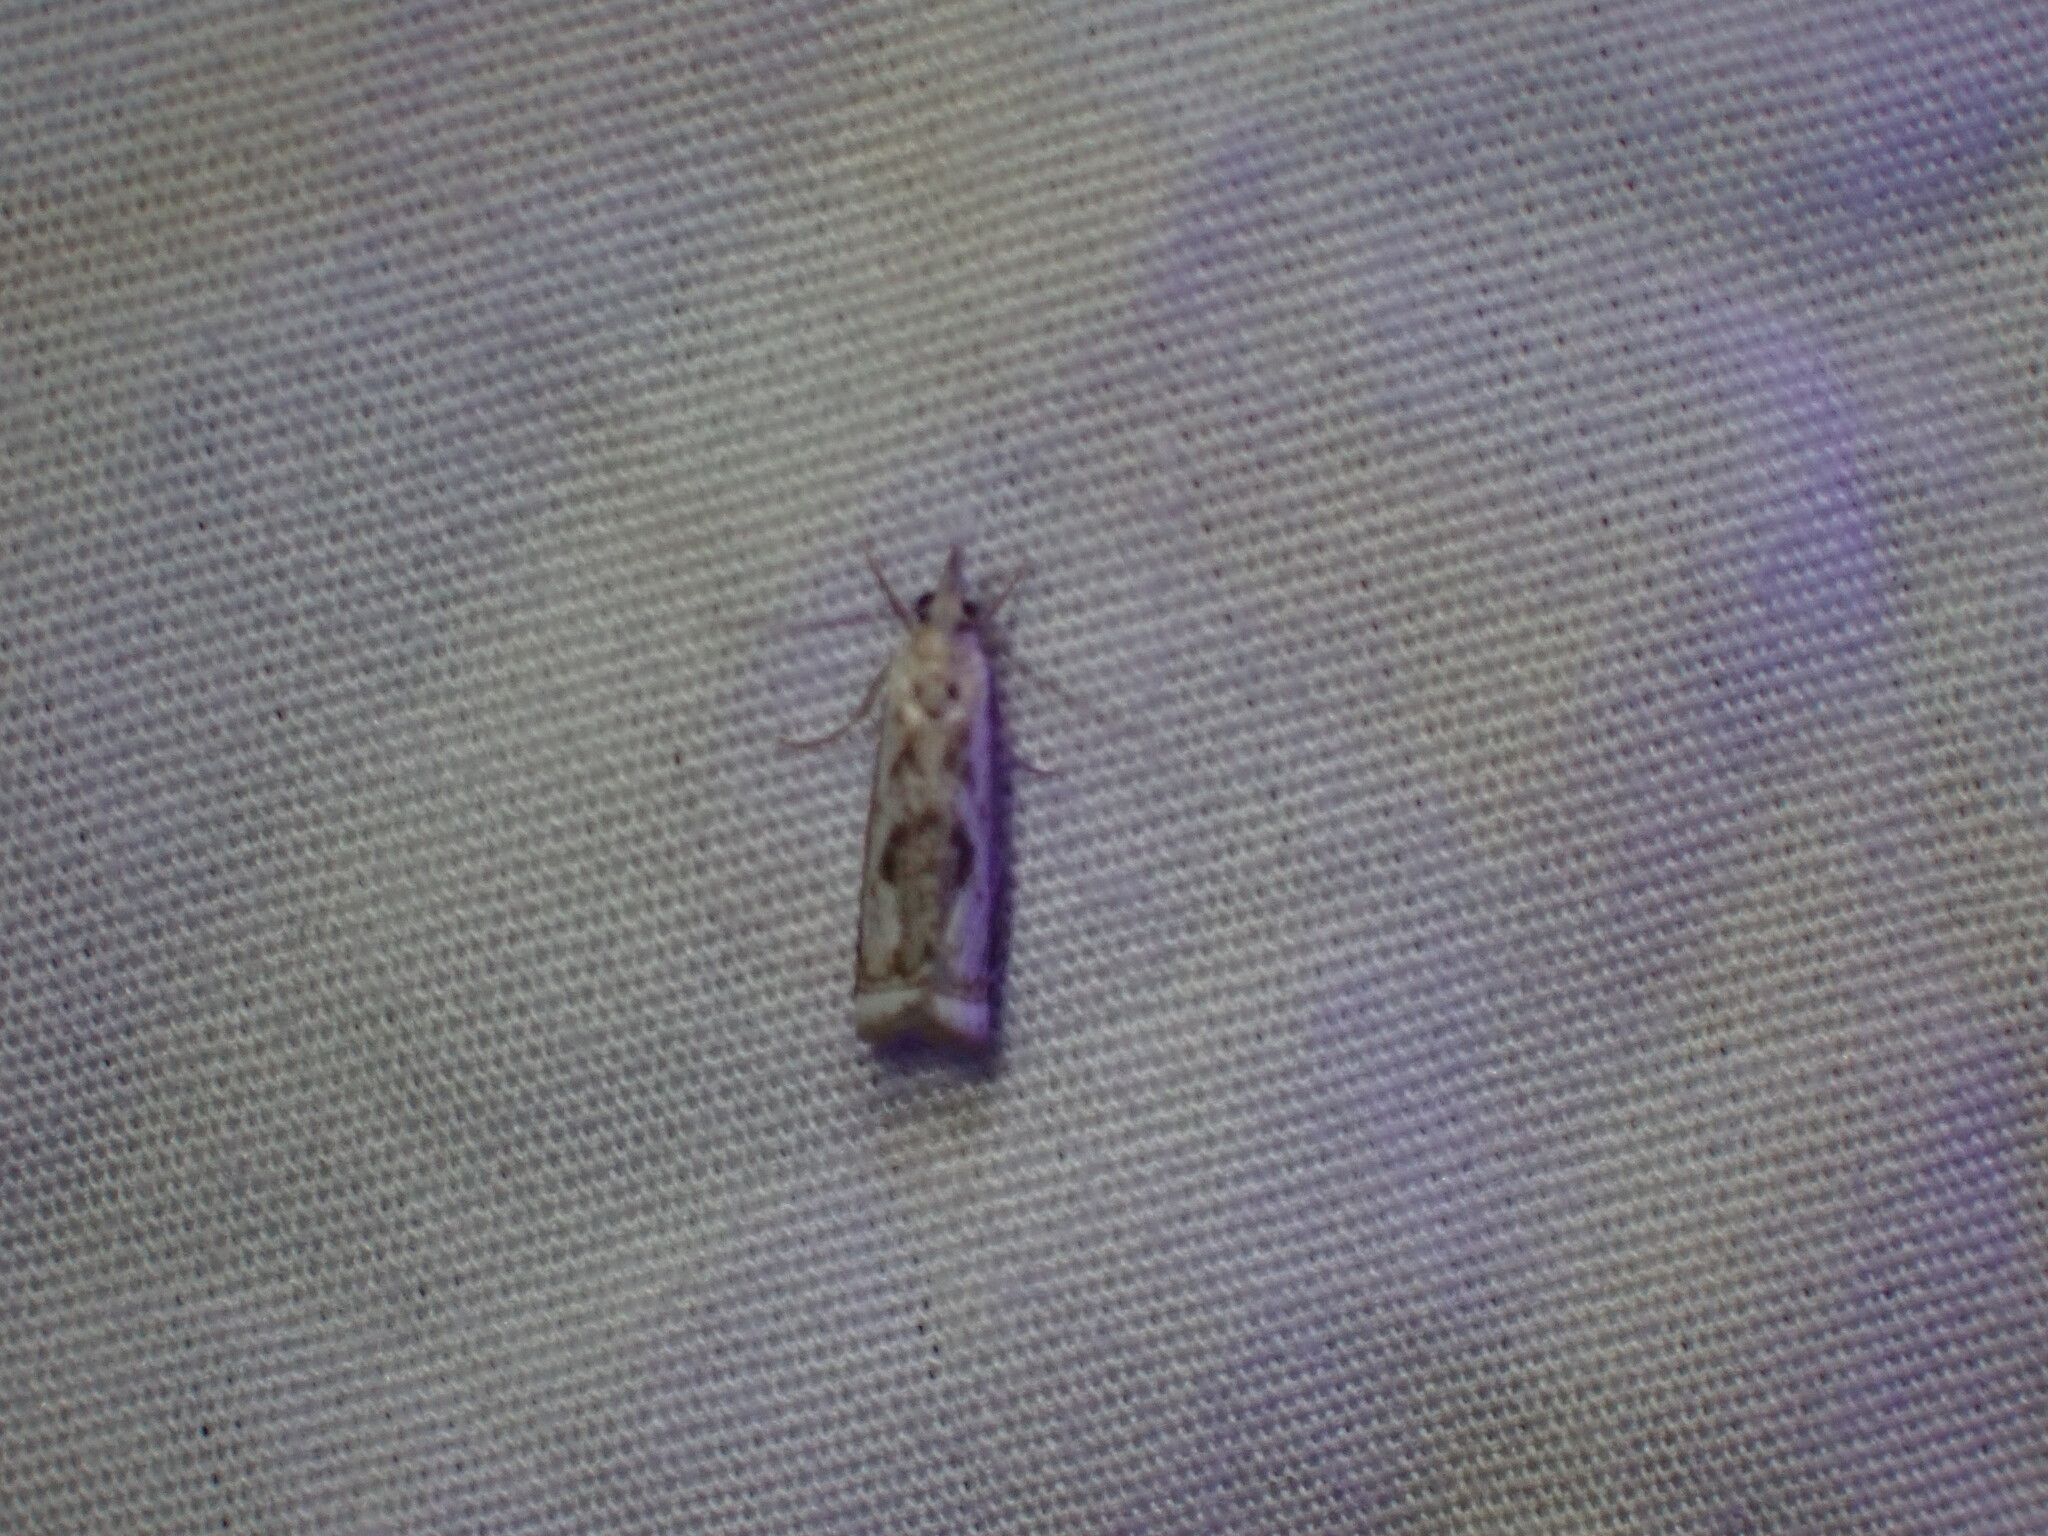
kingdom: Animalia
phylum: Arthropoda
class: Insecta
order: Lepidoptera
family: Crambidae
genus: Microcrambus
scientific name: Microcrambus elegans
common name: Elegant grass-veneer
